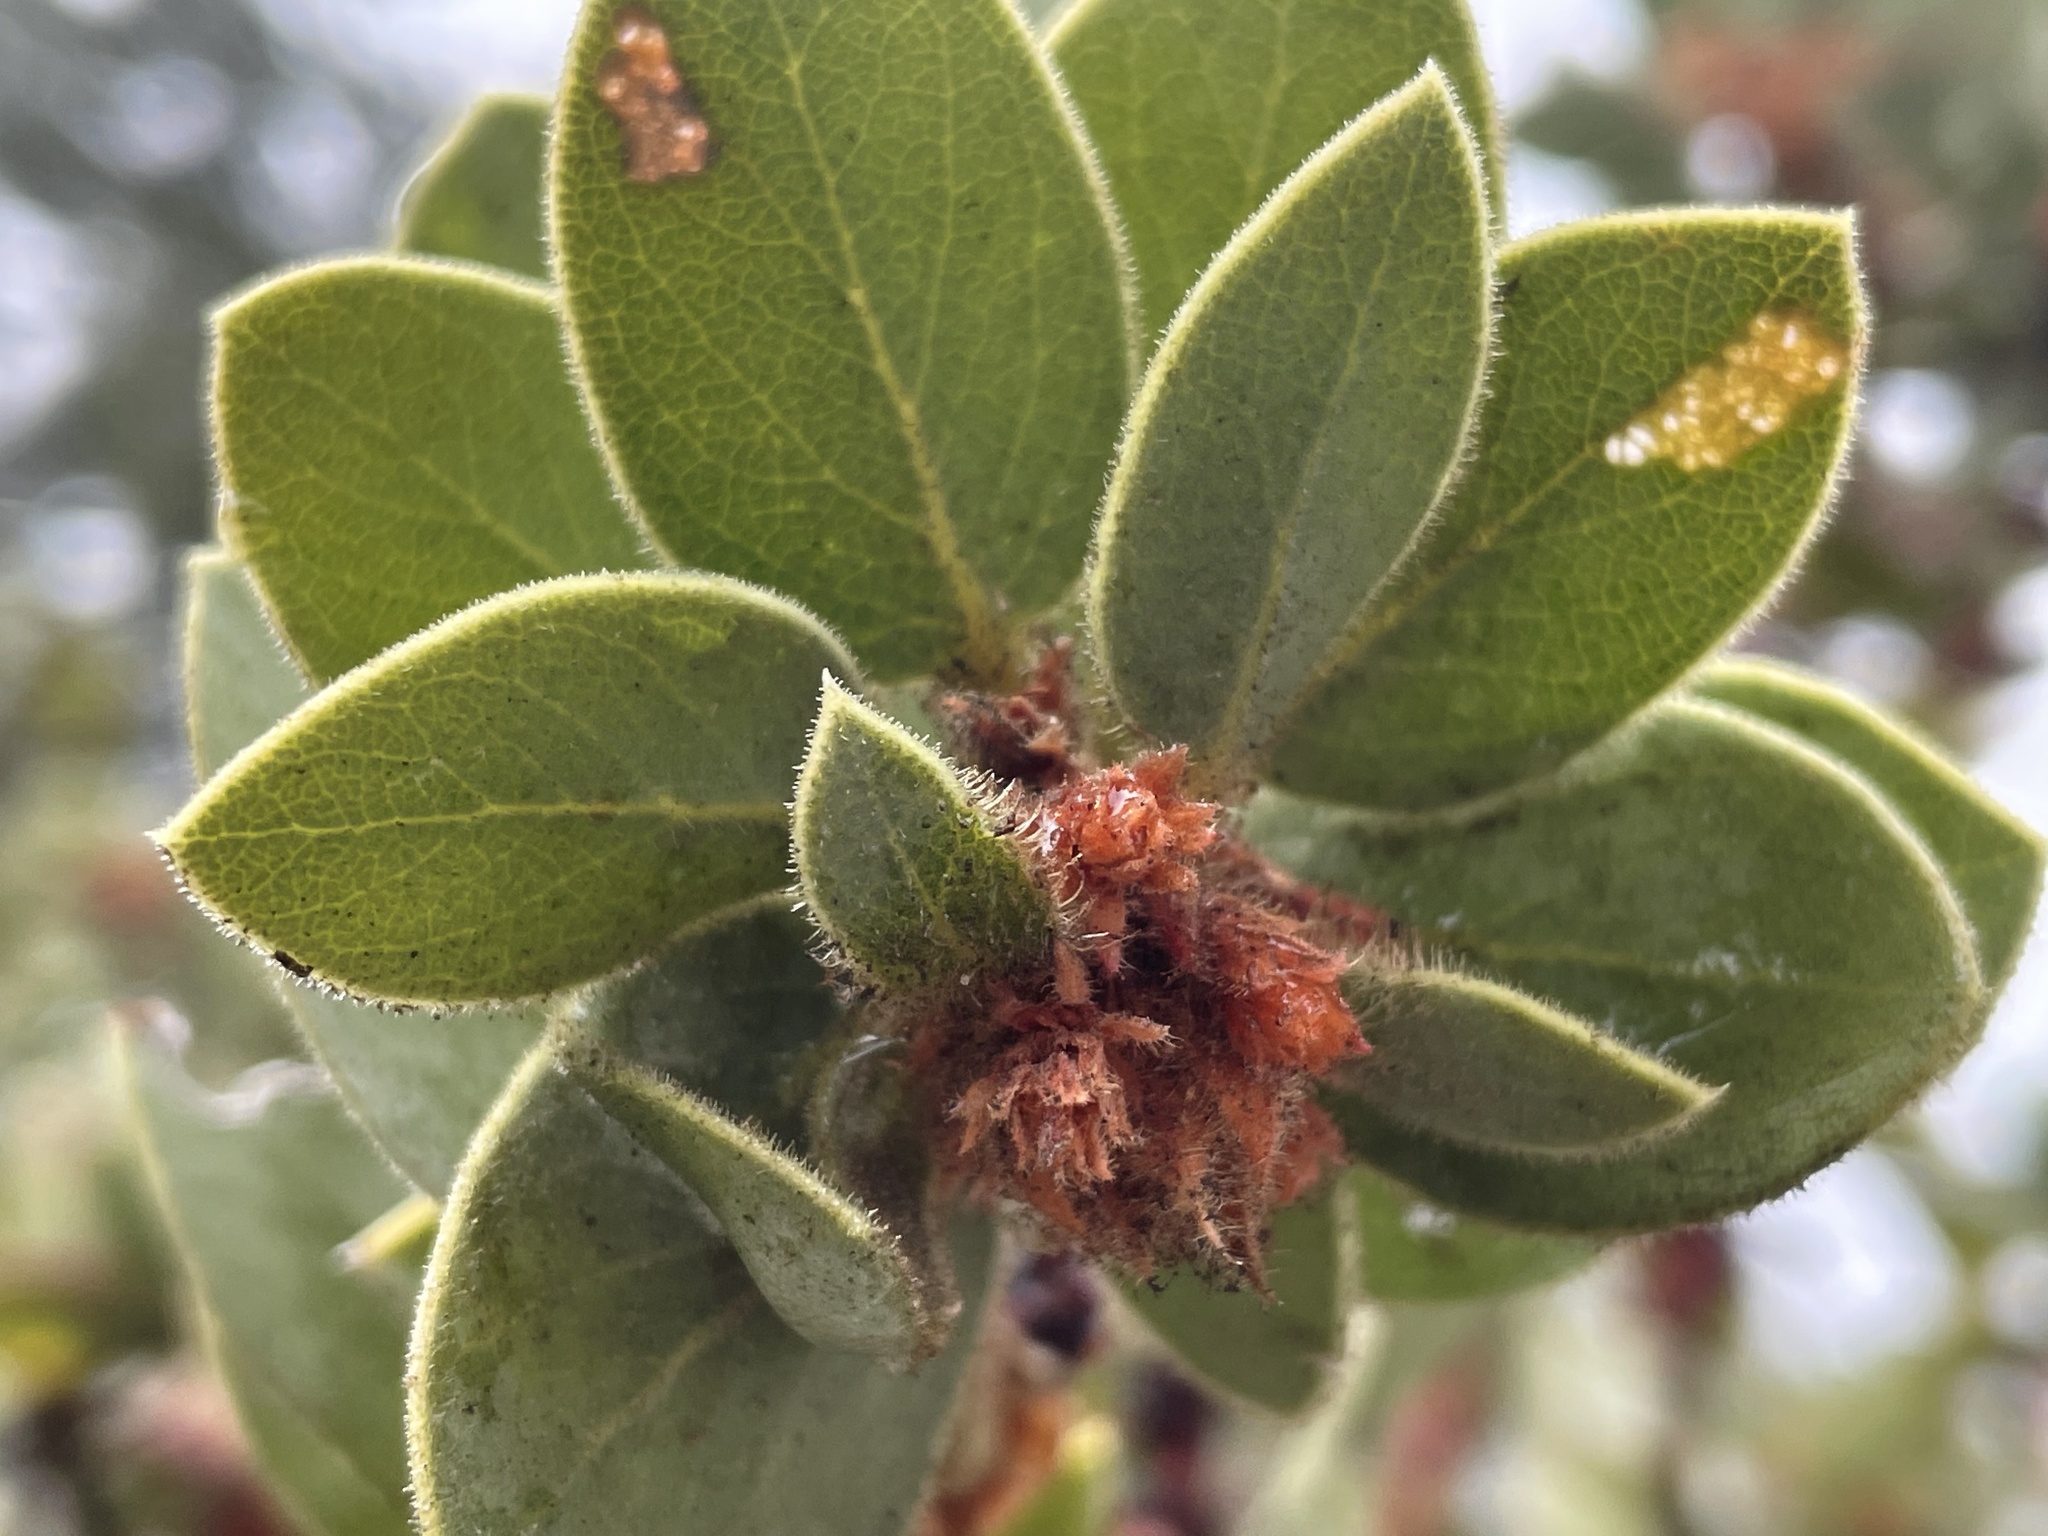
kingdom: Plantae
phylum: Tracheophyta
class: Magnoliopsida
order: Ericales
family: Ericaceae
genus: Arctostaphylos
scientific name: Arctostaphylos pringlei
